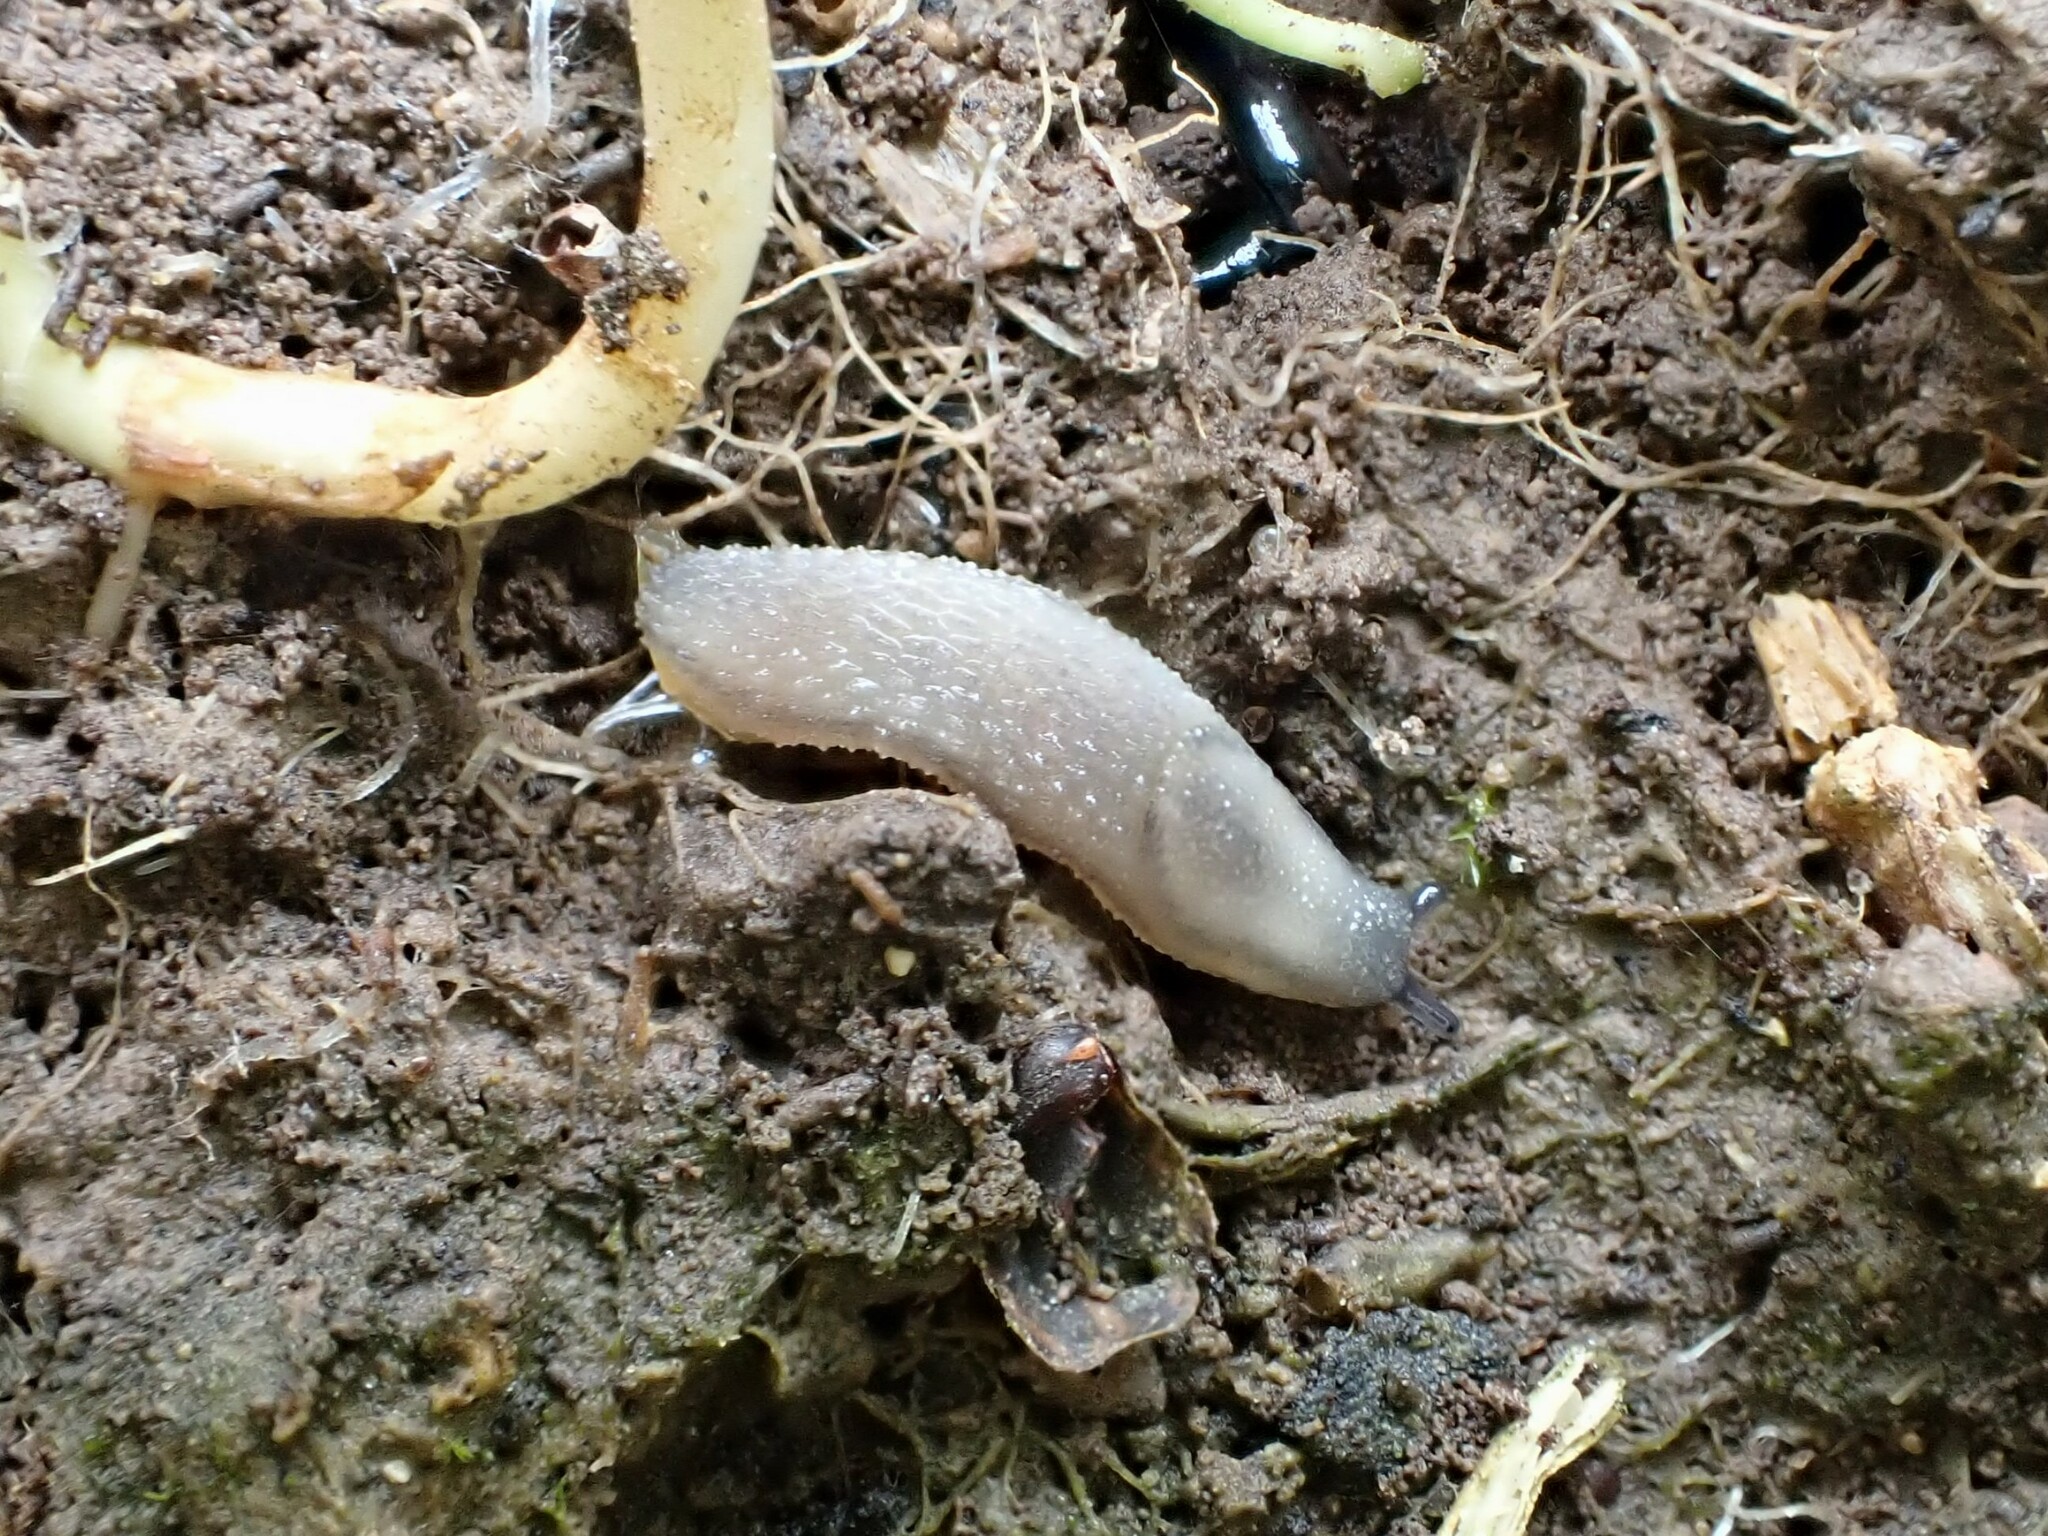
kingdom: Animalia
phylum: Mollusca
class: Gastropoda
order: Stylommatophora
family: Arionidae
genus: Arion
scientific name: Arion intermedius
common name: Hedgehog slug
